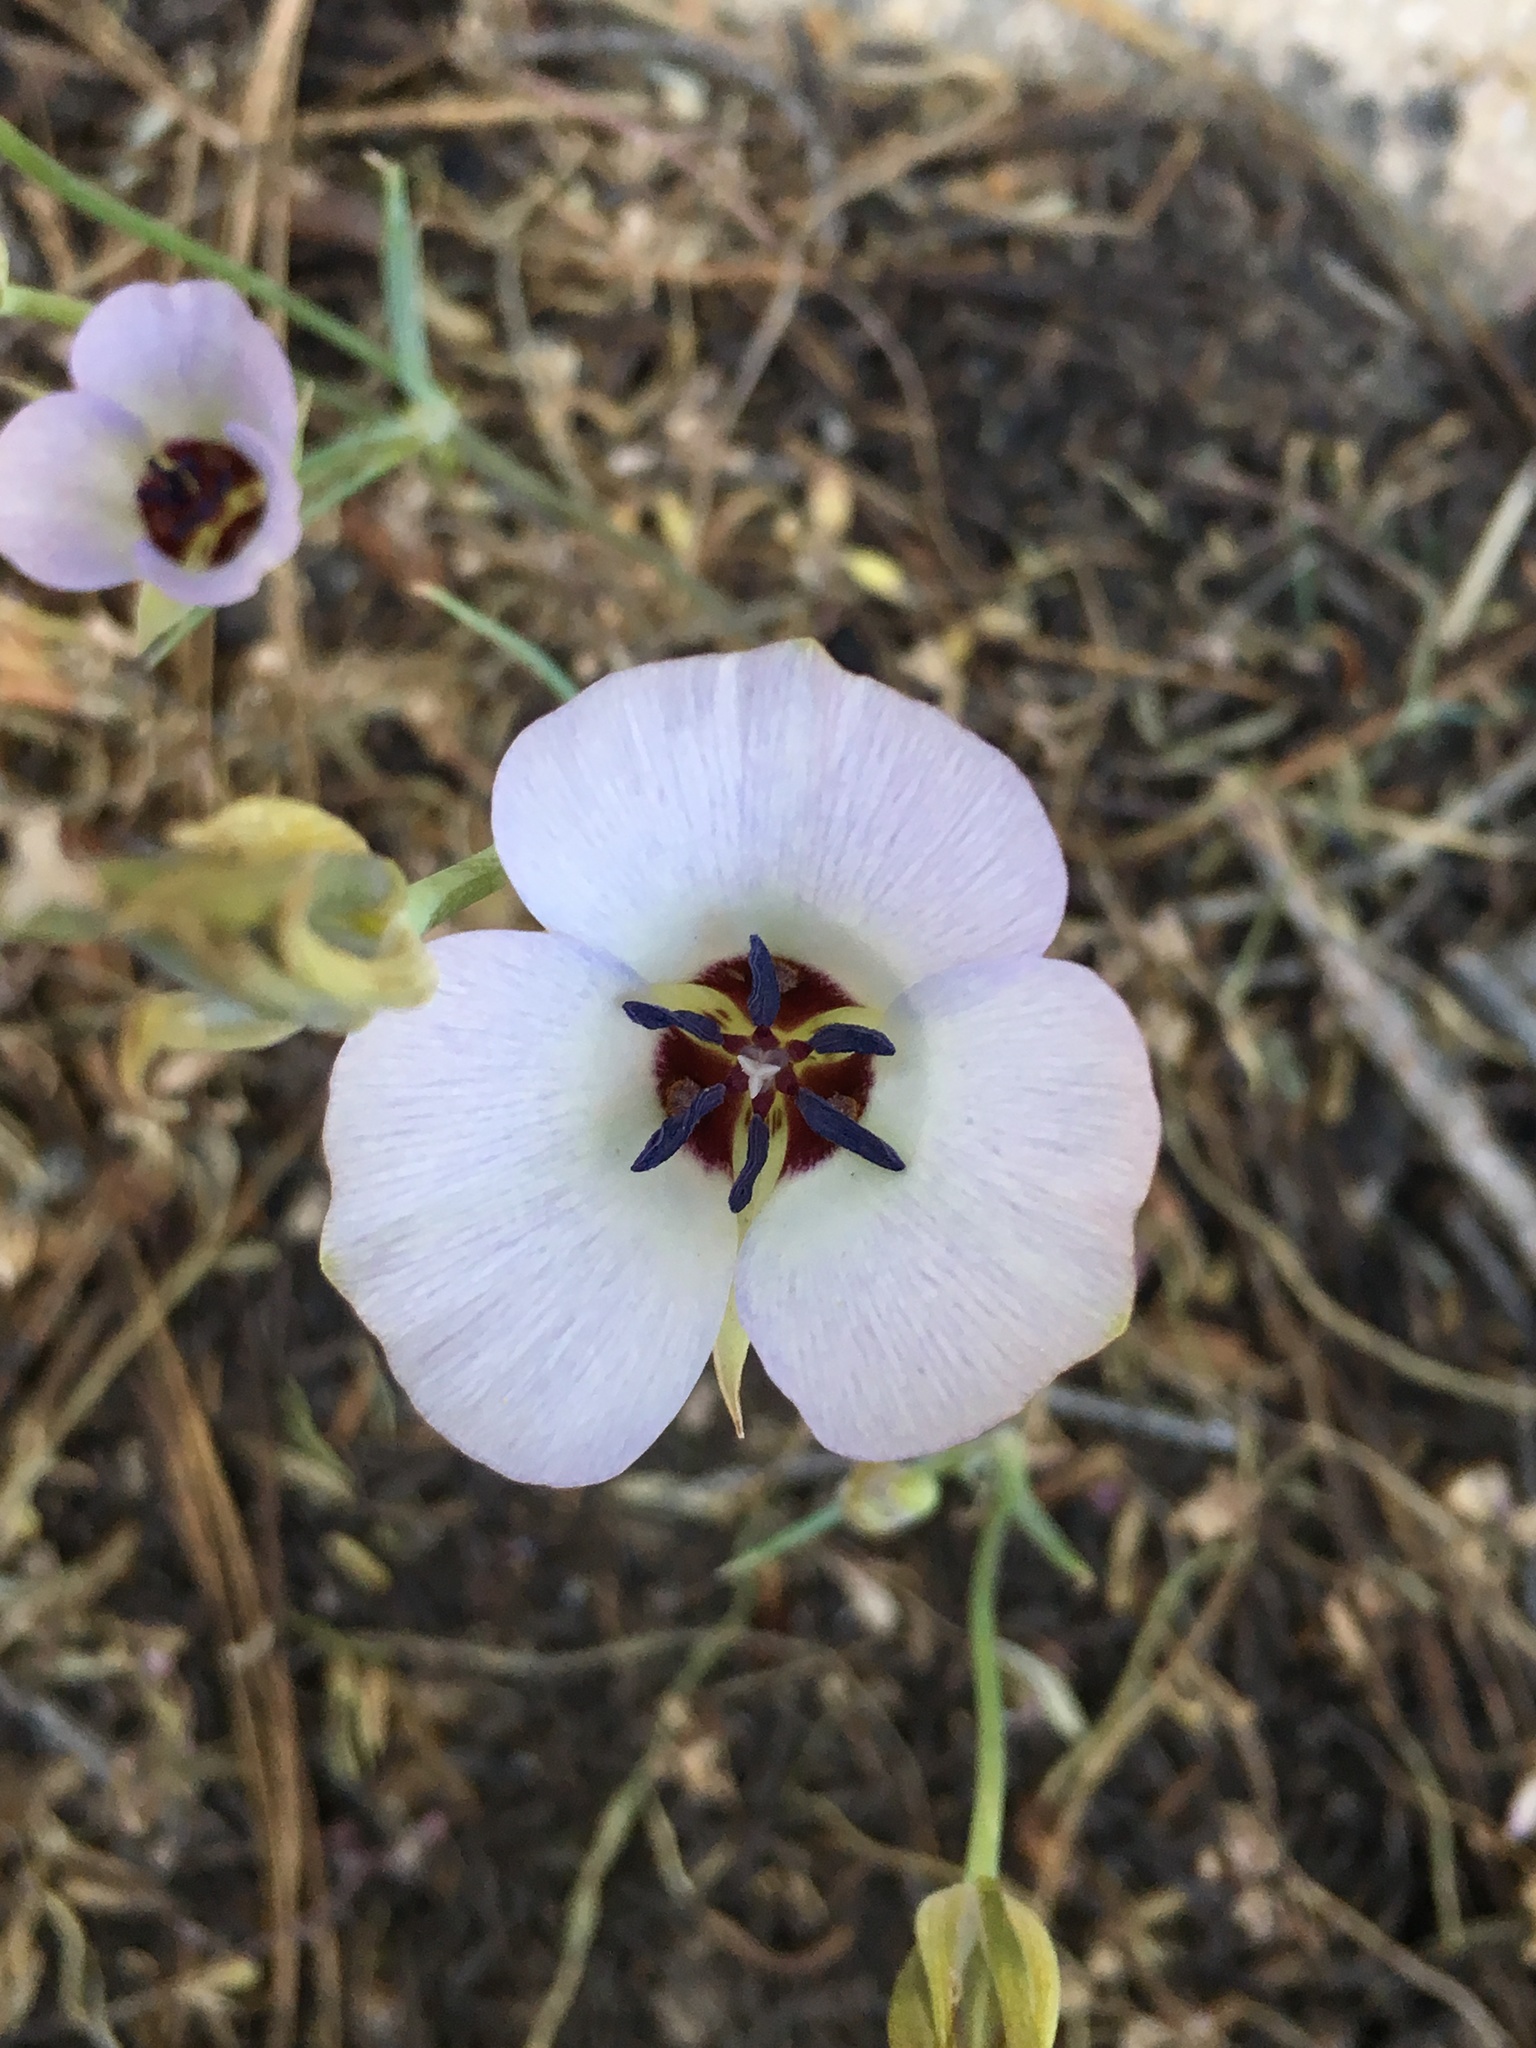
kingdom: Plantae
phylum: Tracheophyta
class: Liliopsida
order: Liliales
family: Liliaceae
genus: Calochortus
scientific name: Calochortus invenustus
